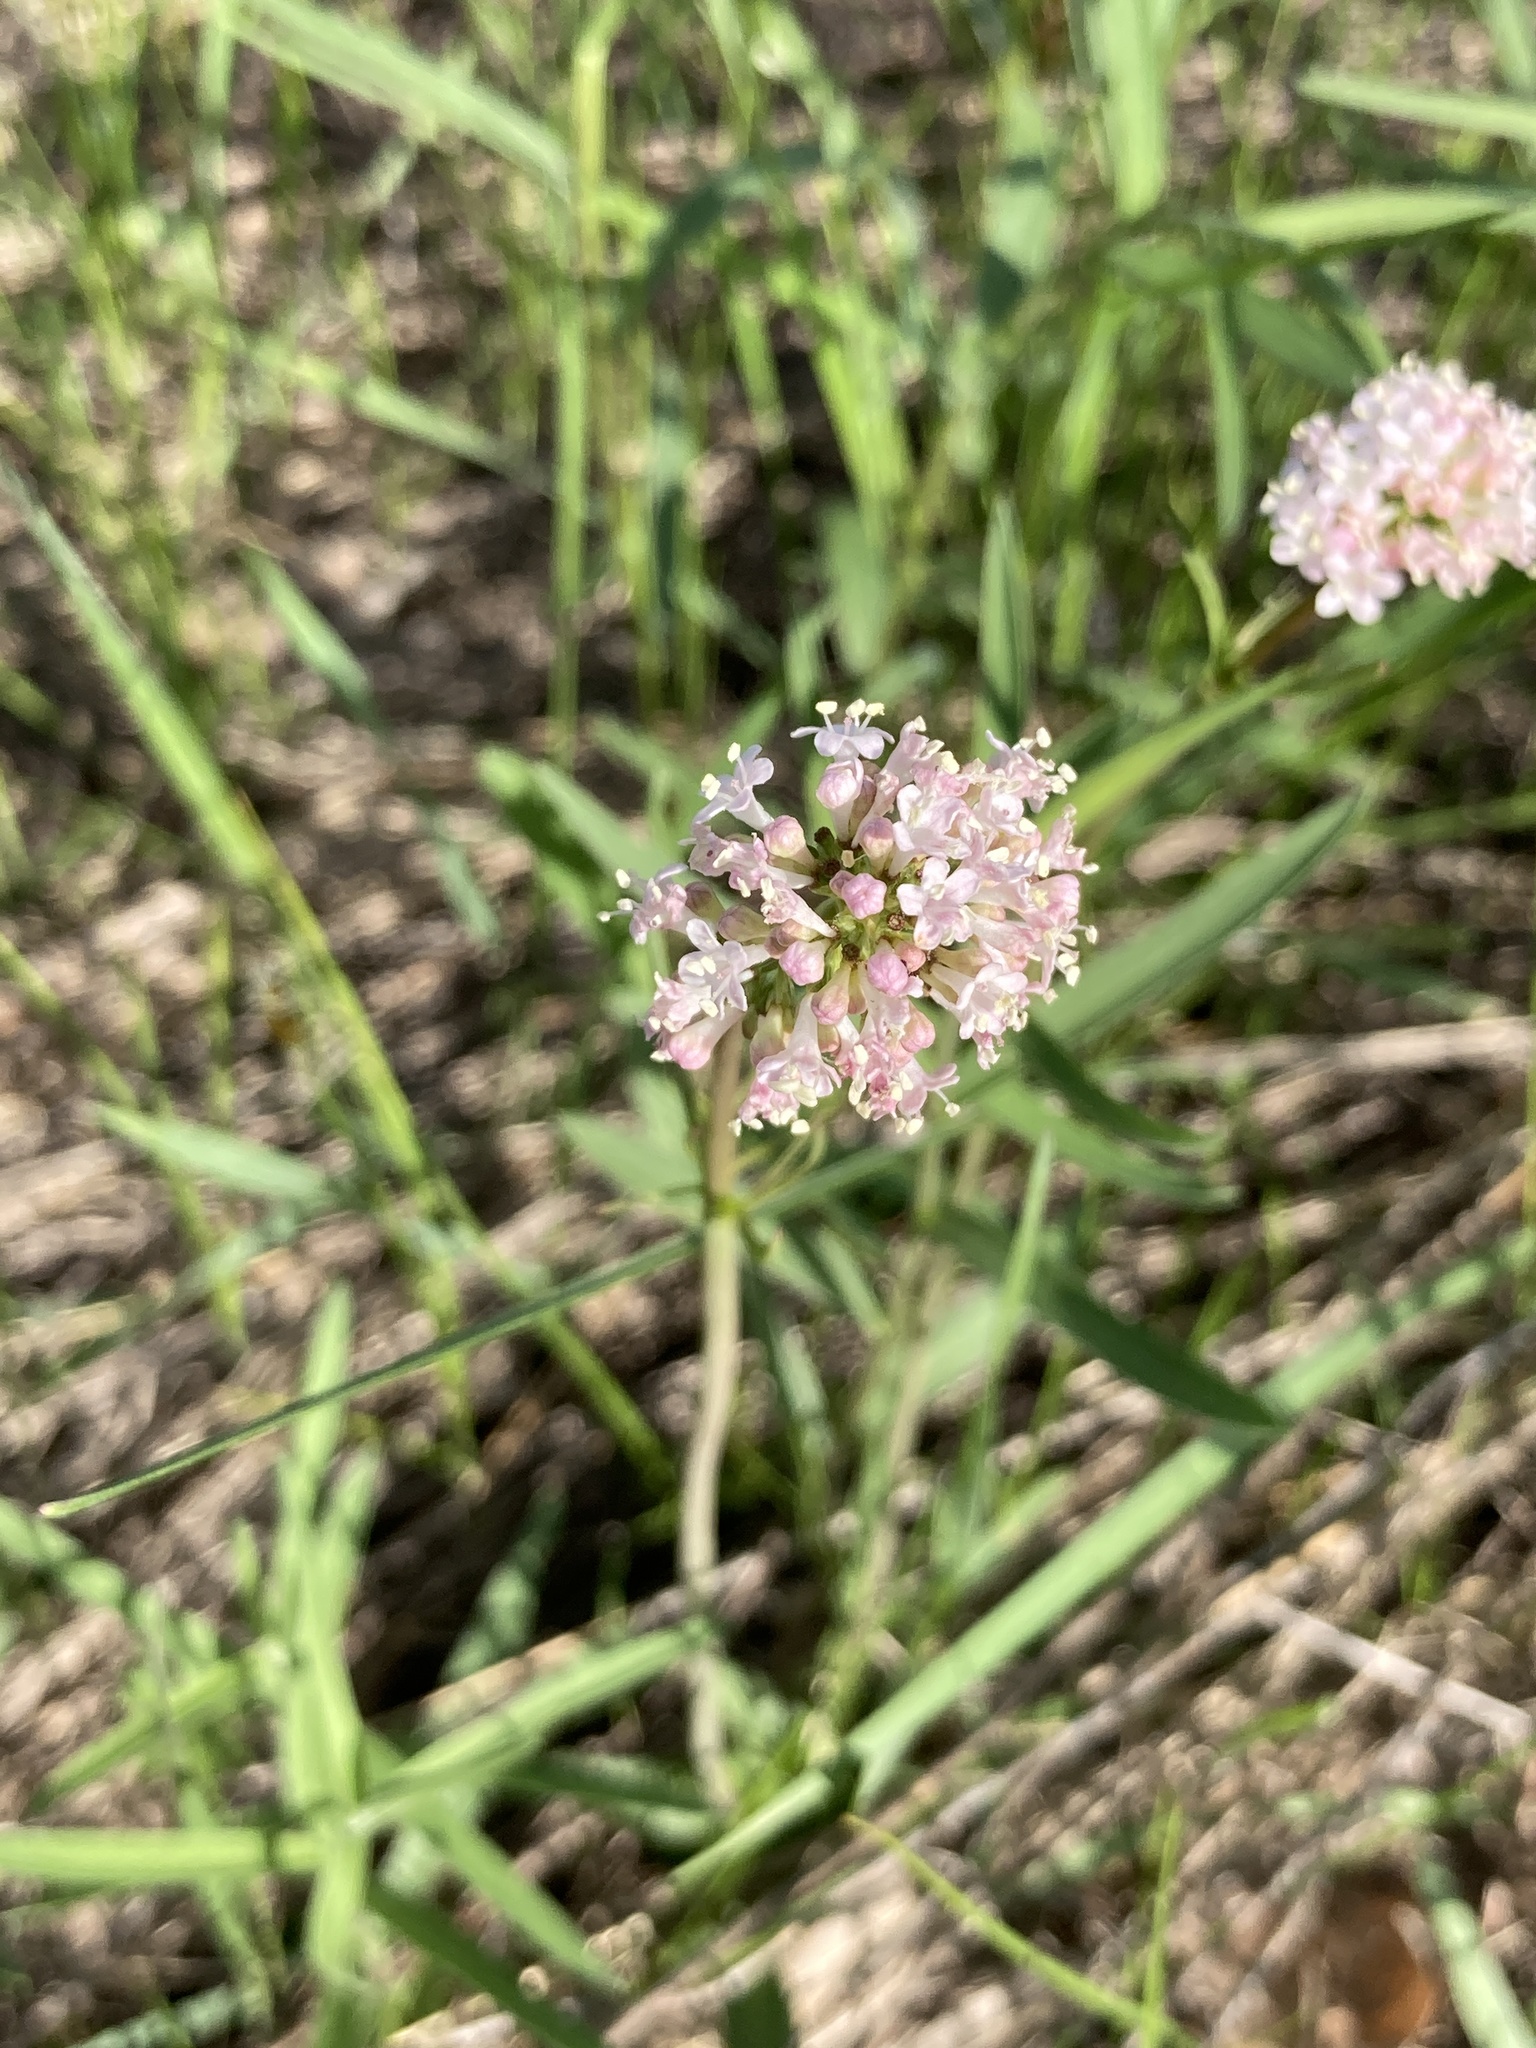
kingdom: Plantae
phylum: Tracheophyta
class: Magnoliopsida
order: Dipsacales
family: Caprifoliaceae
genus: Valeriana
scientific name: Valeriana tuberosa
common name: Tuberous valerian
